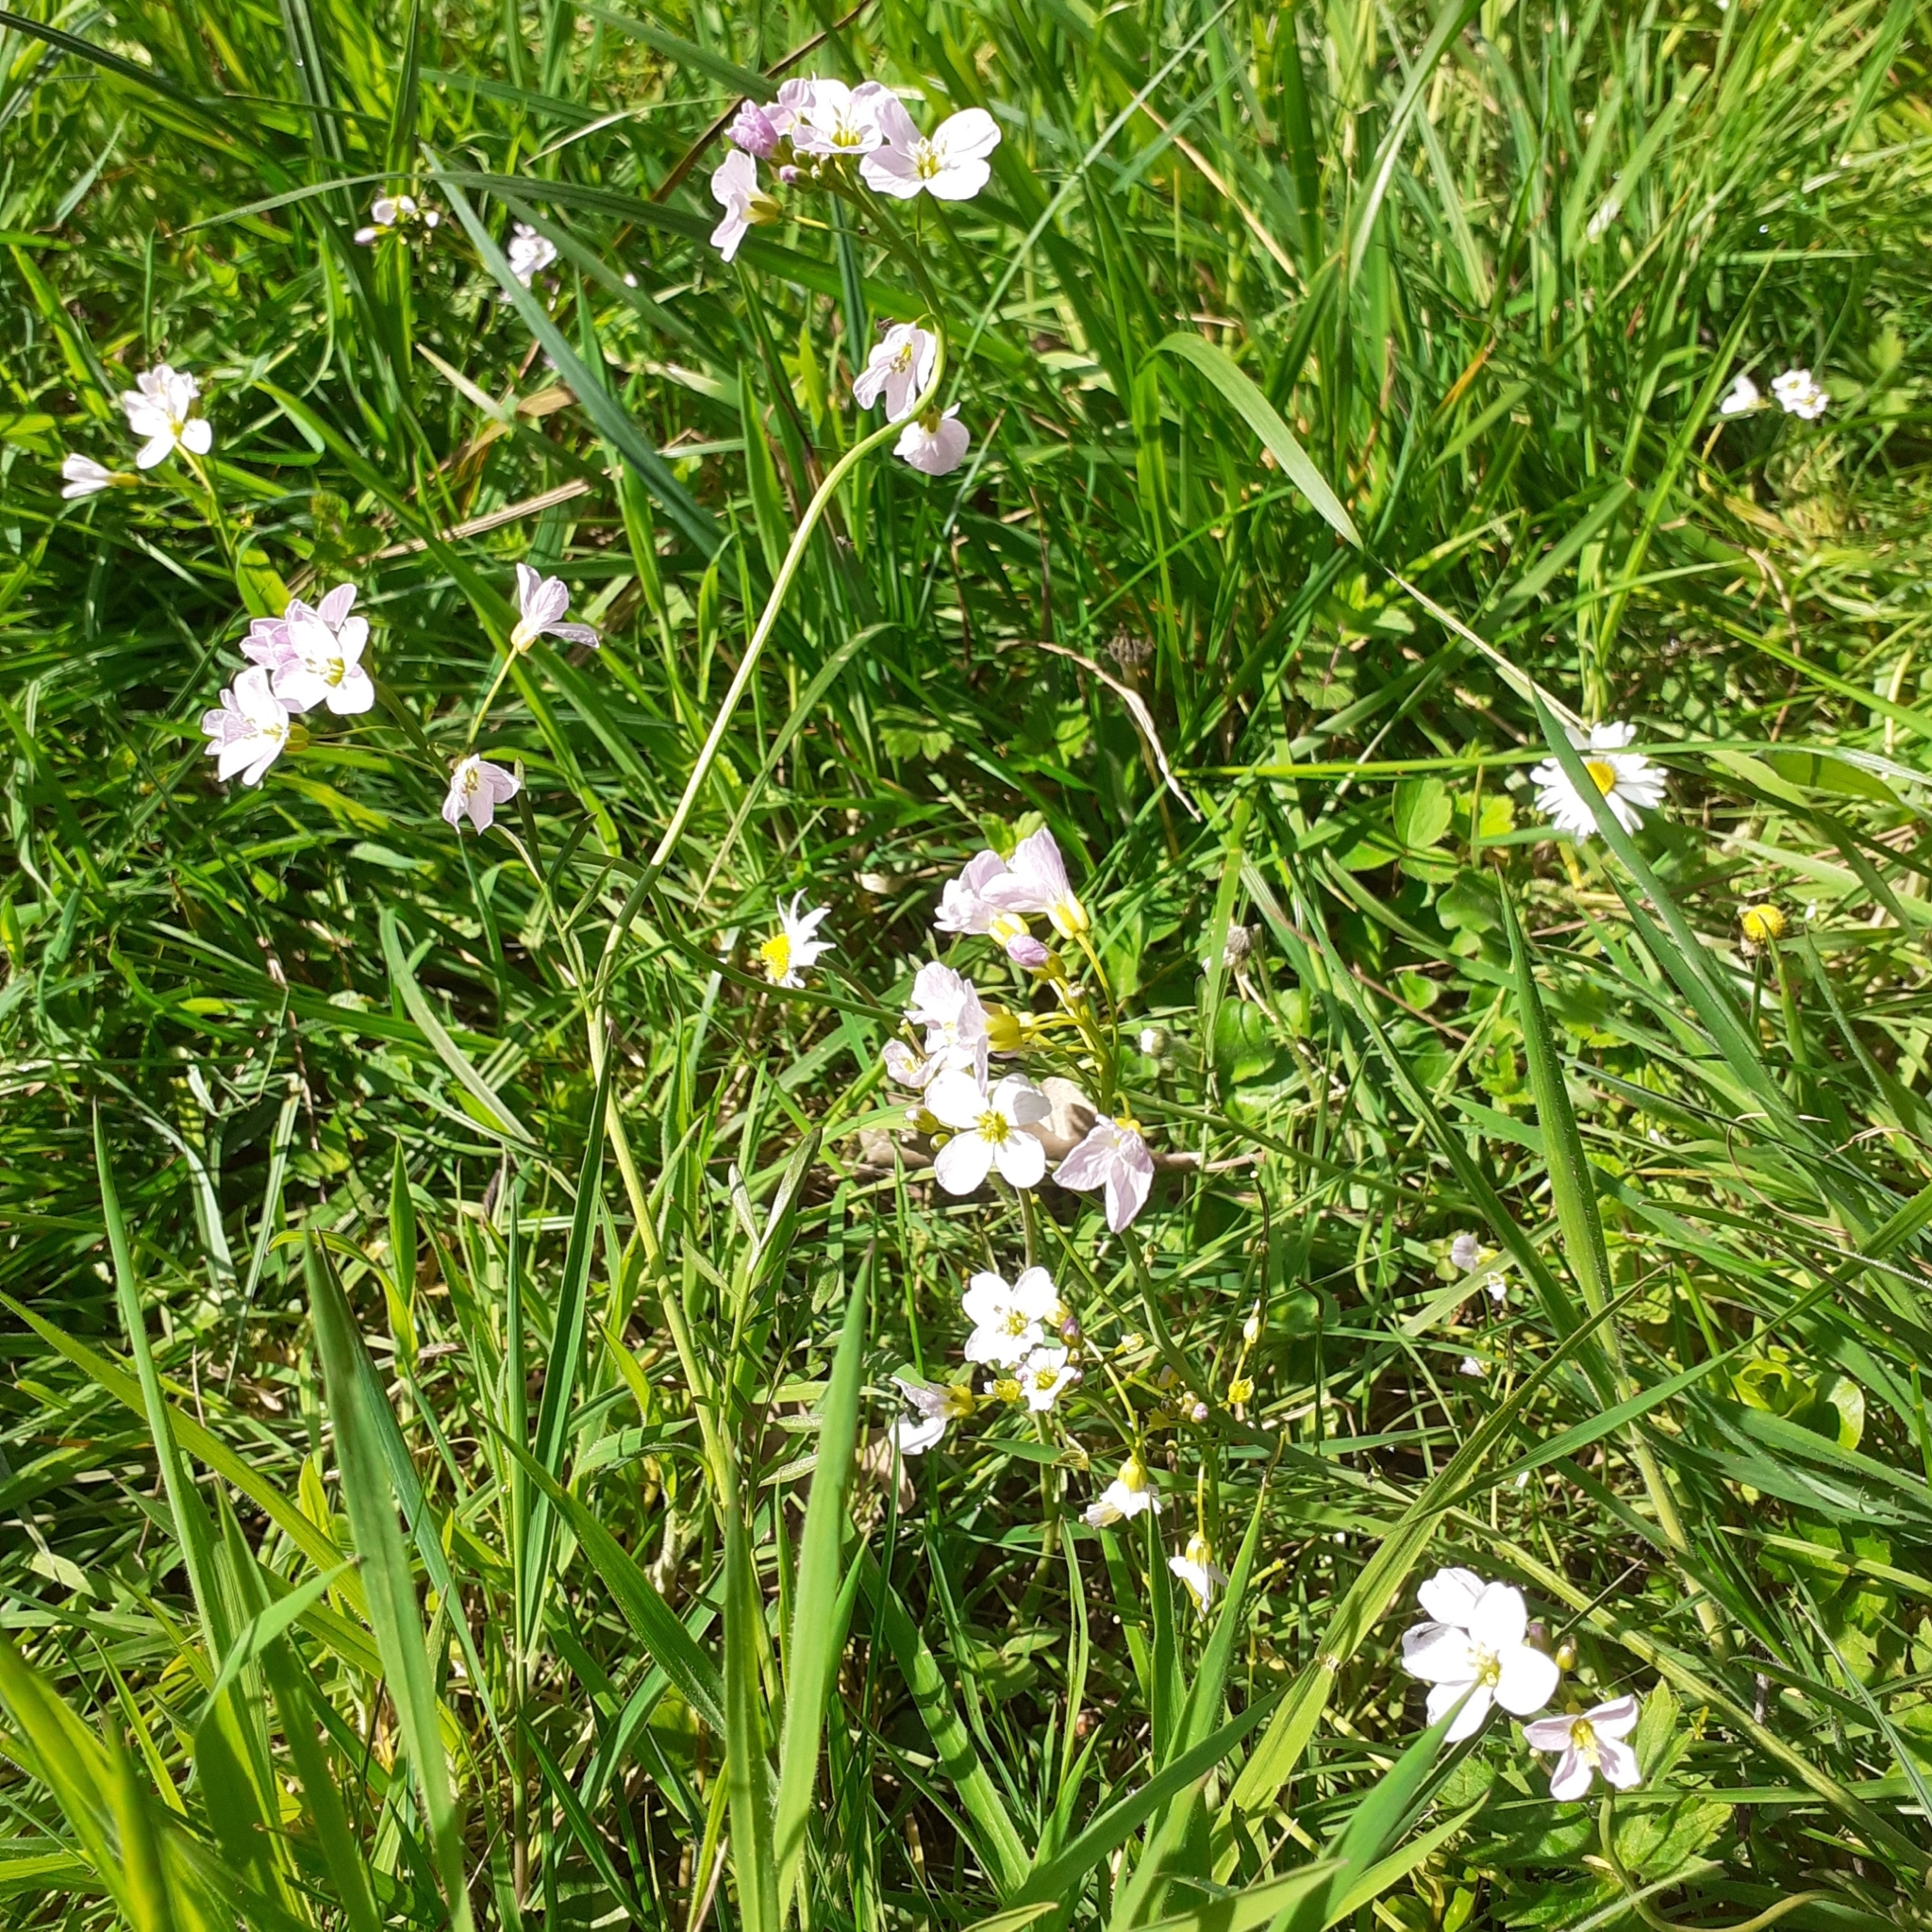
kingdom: Plantae
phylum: Tracheophyta
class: Magnoliopsida
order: Brassicales
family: Brassicaceae
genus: Cardamine
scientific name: Cardamine pratensis
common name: Cuckoo flower
